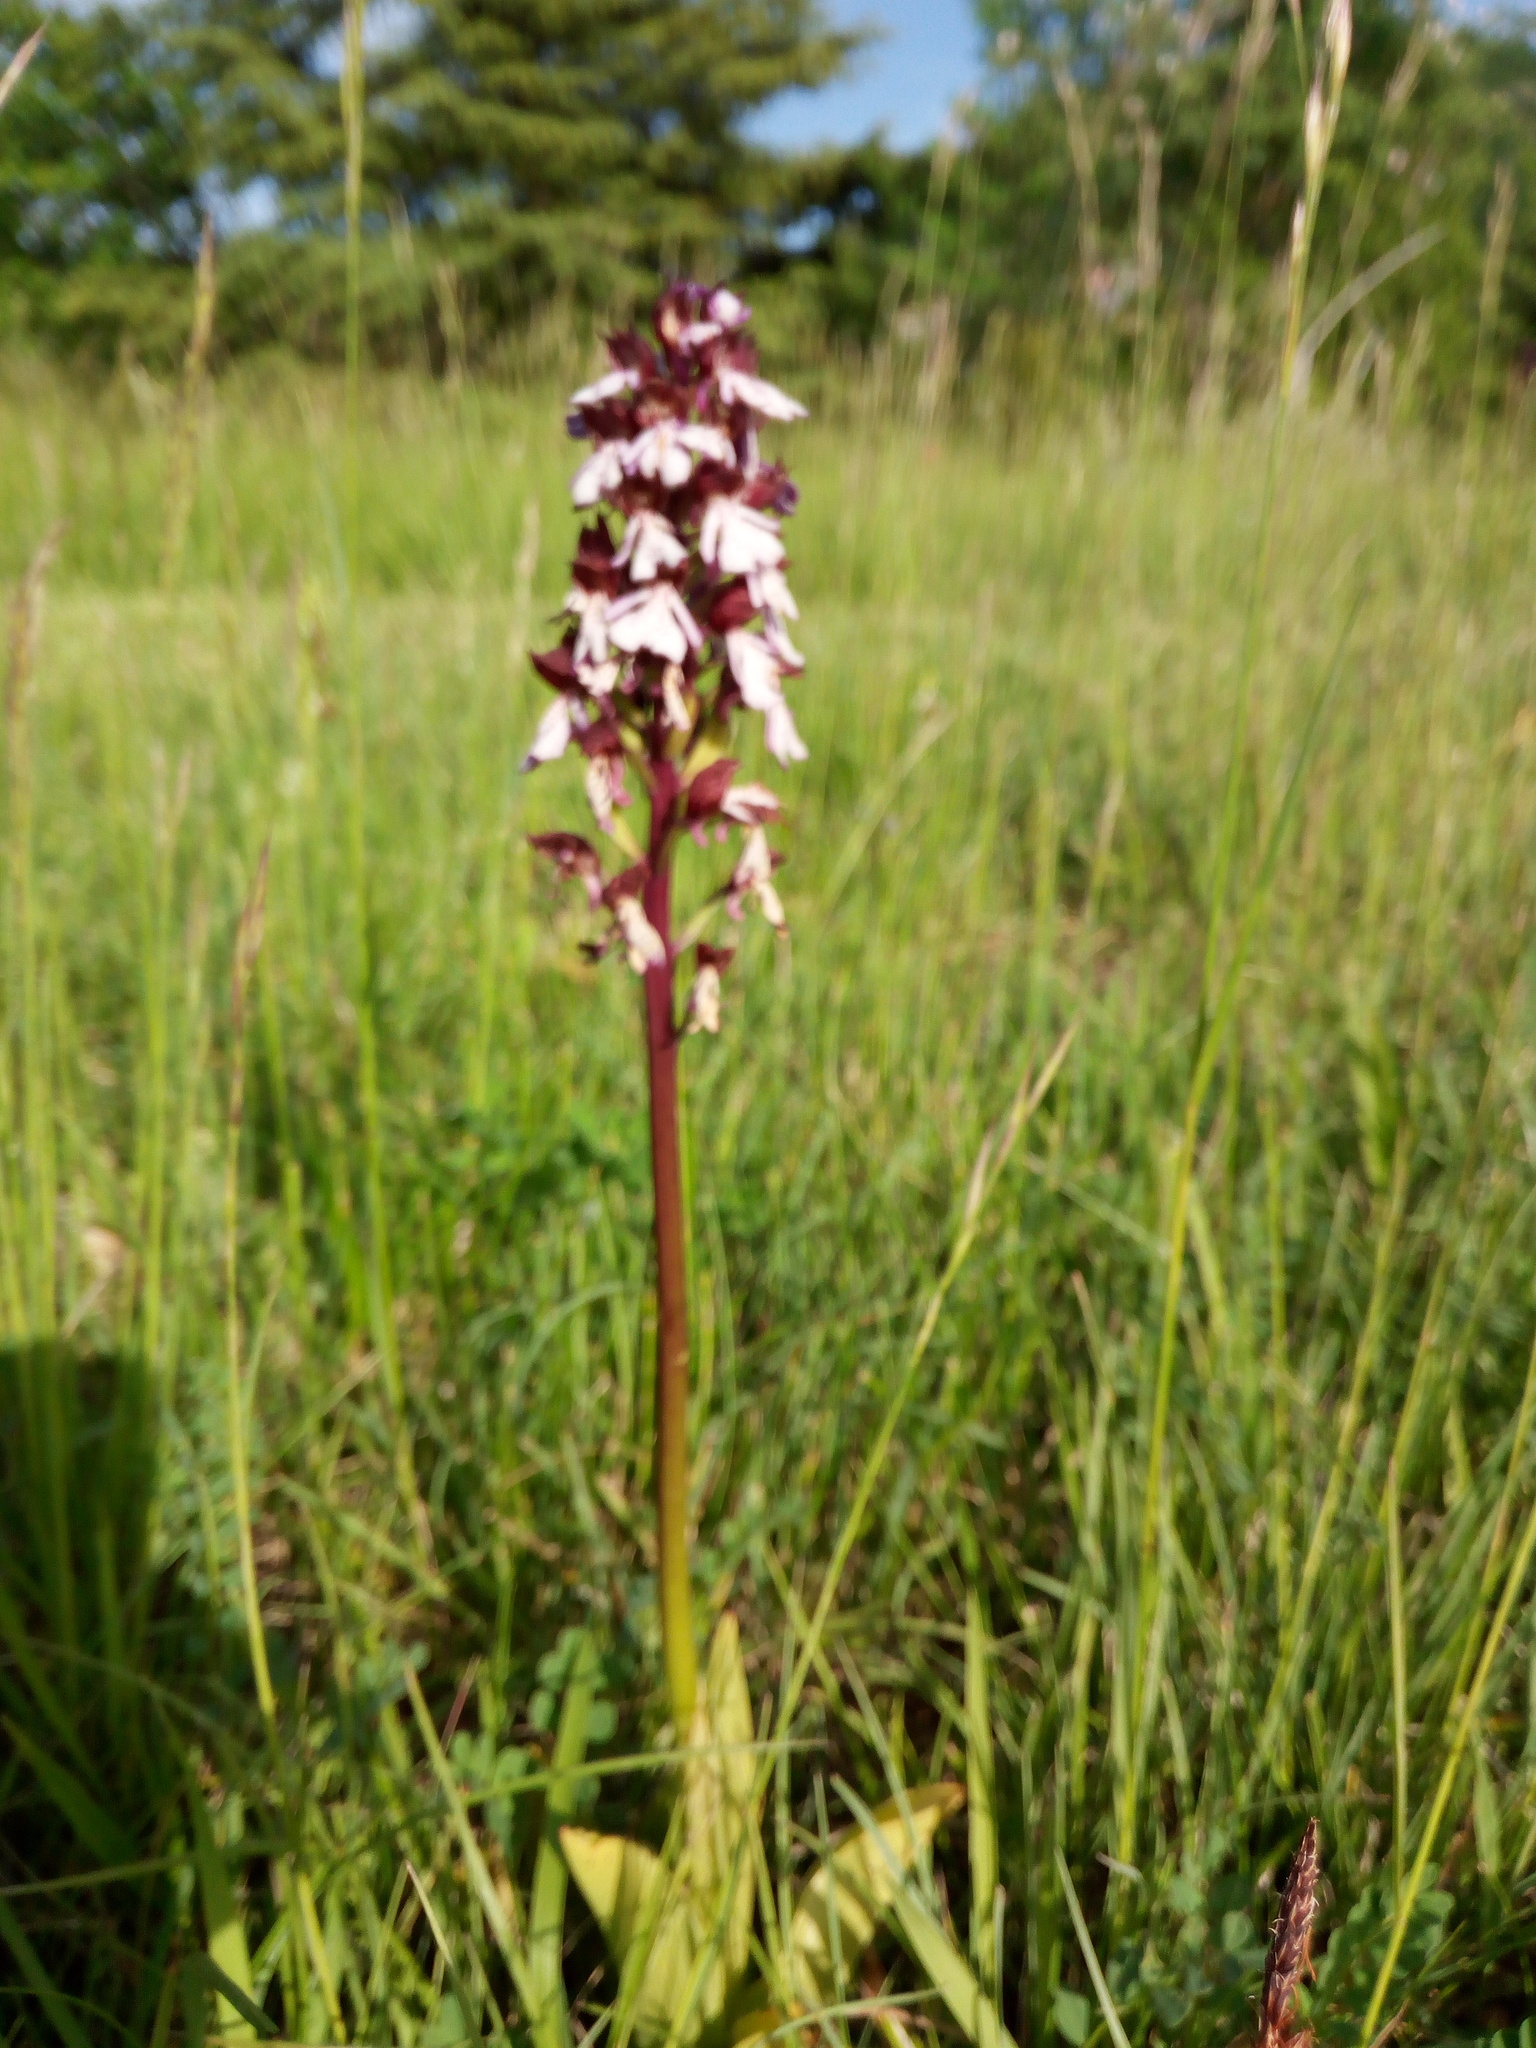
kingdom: Plantae
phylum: Tracheophyta
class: Liliopsida
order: Asparagales
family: Orchidaceae
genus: Orchis
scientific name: Orchis purpurea
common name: Lady orchid
